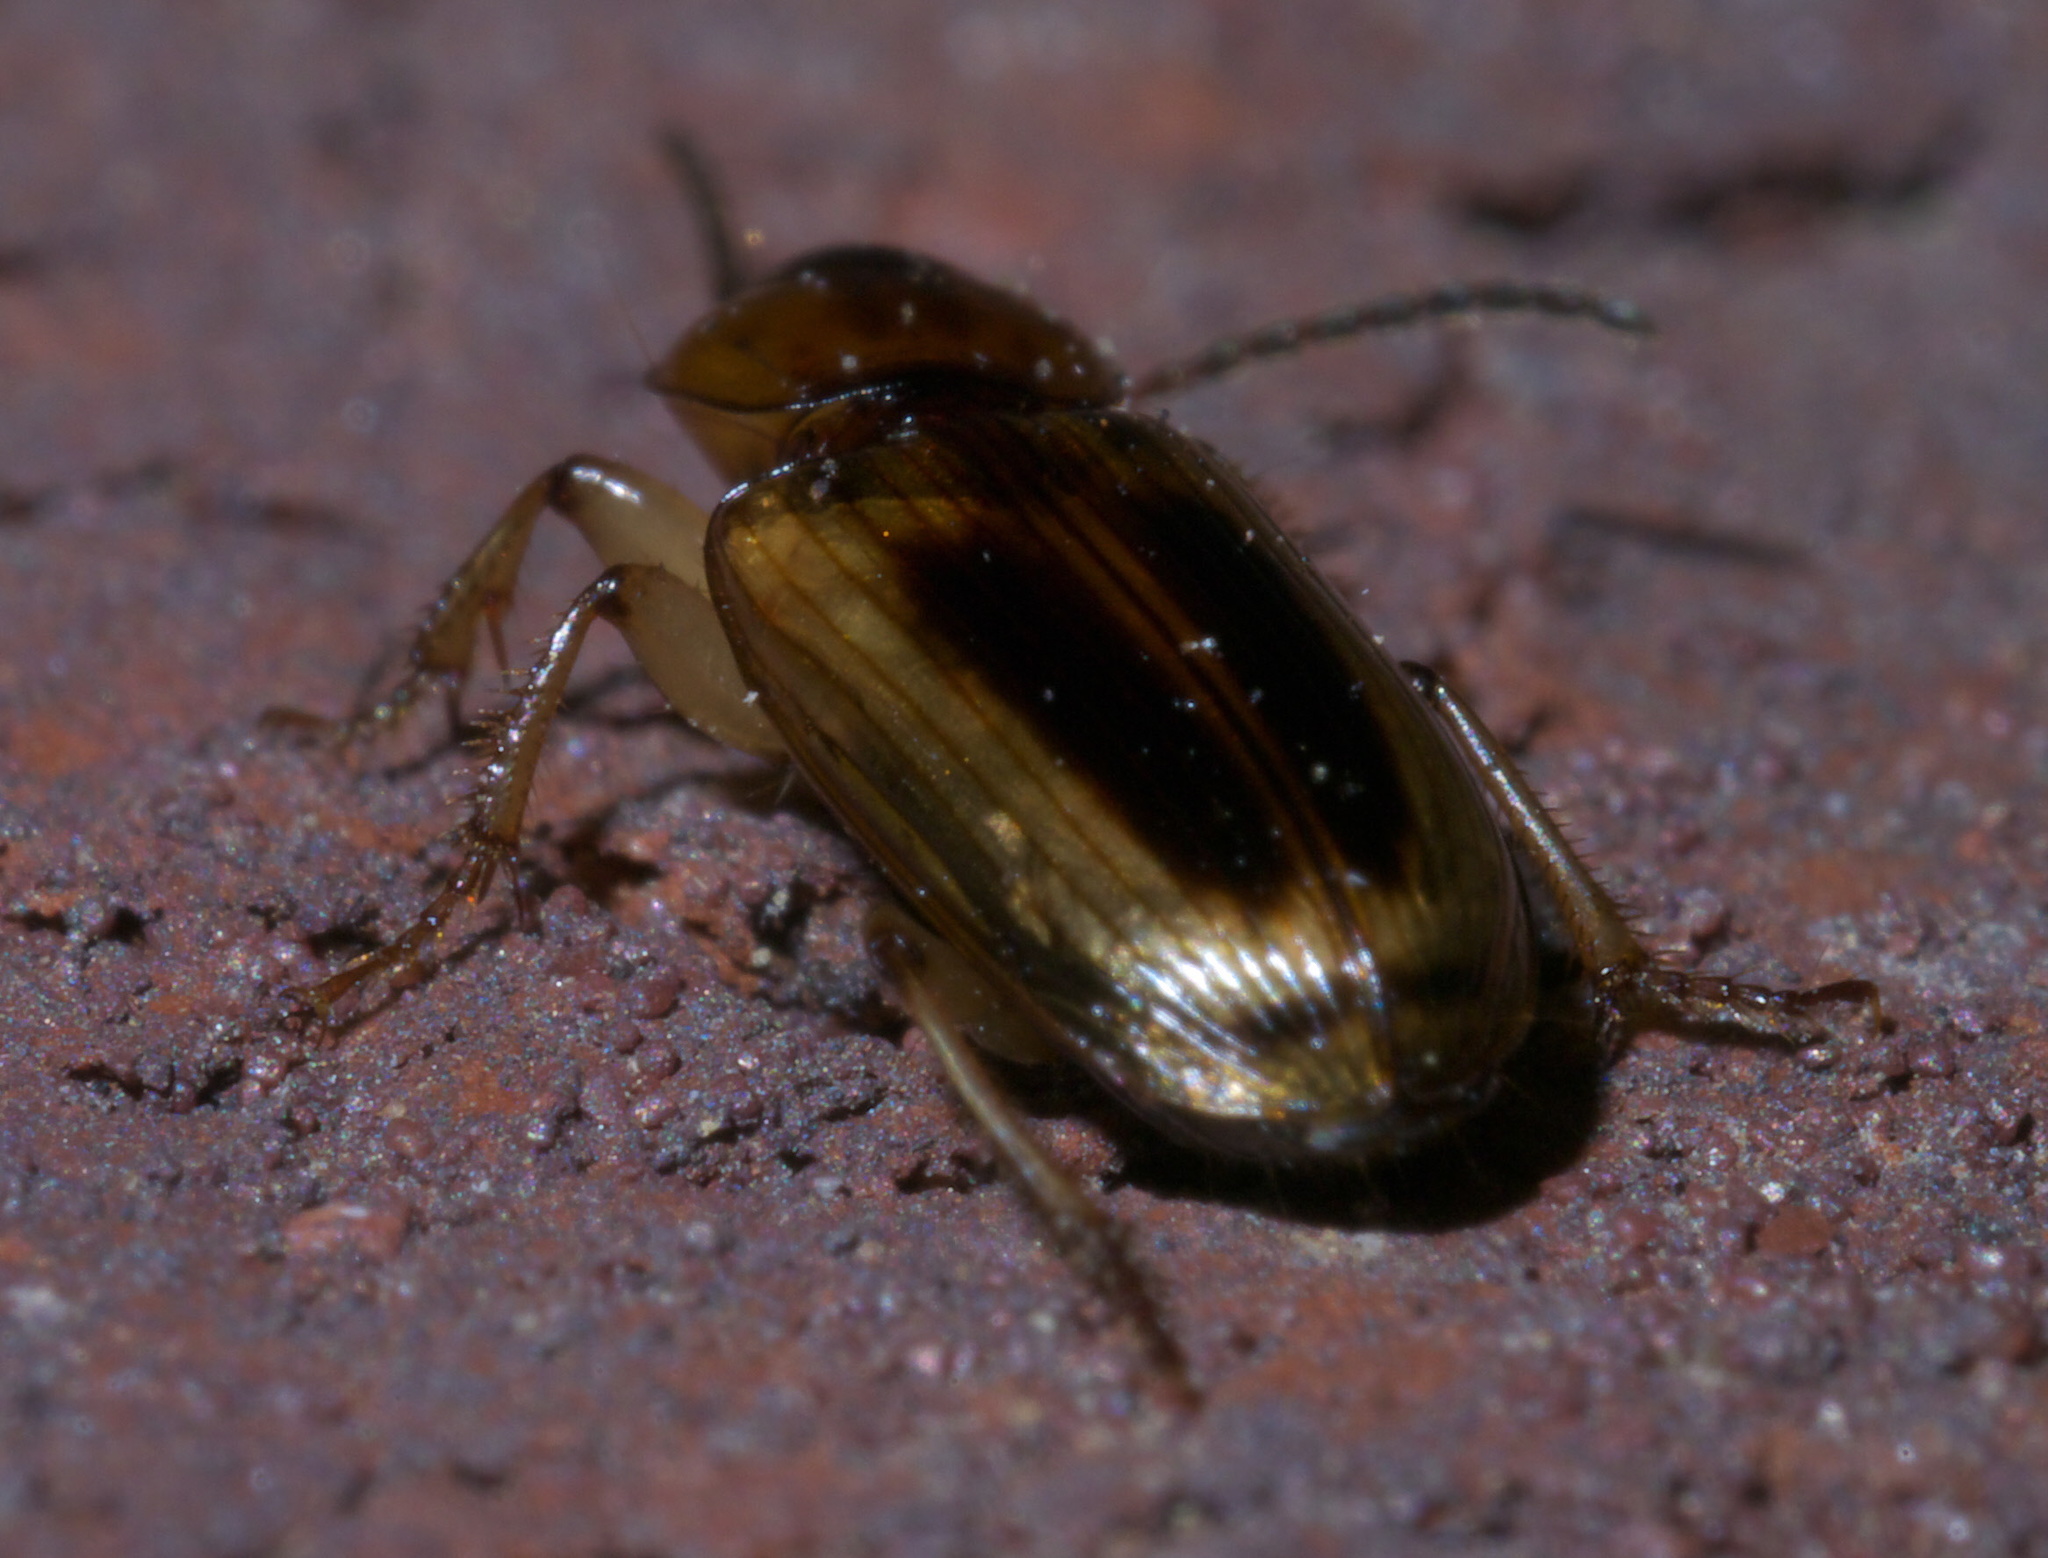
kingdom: Animalia
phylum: Arthropoda
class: Insecta
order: Coleoptera
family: Carabidae
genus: Stenolophus
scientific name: Stenolophus comma
